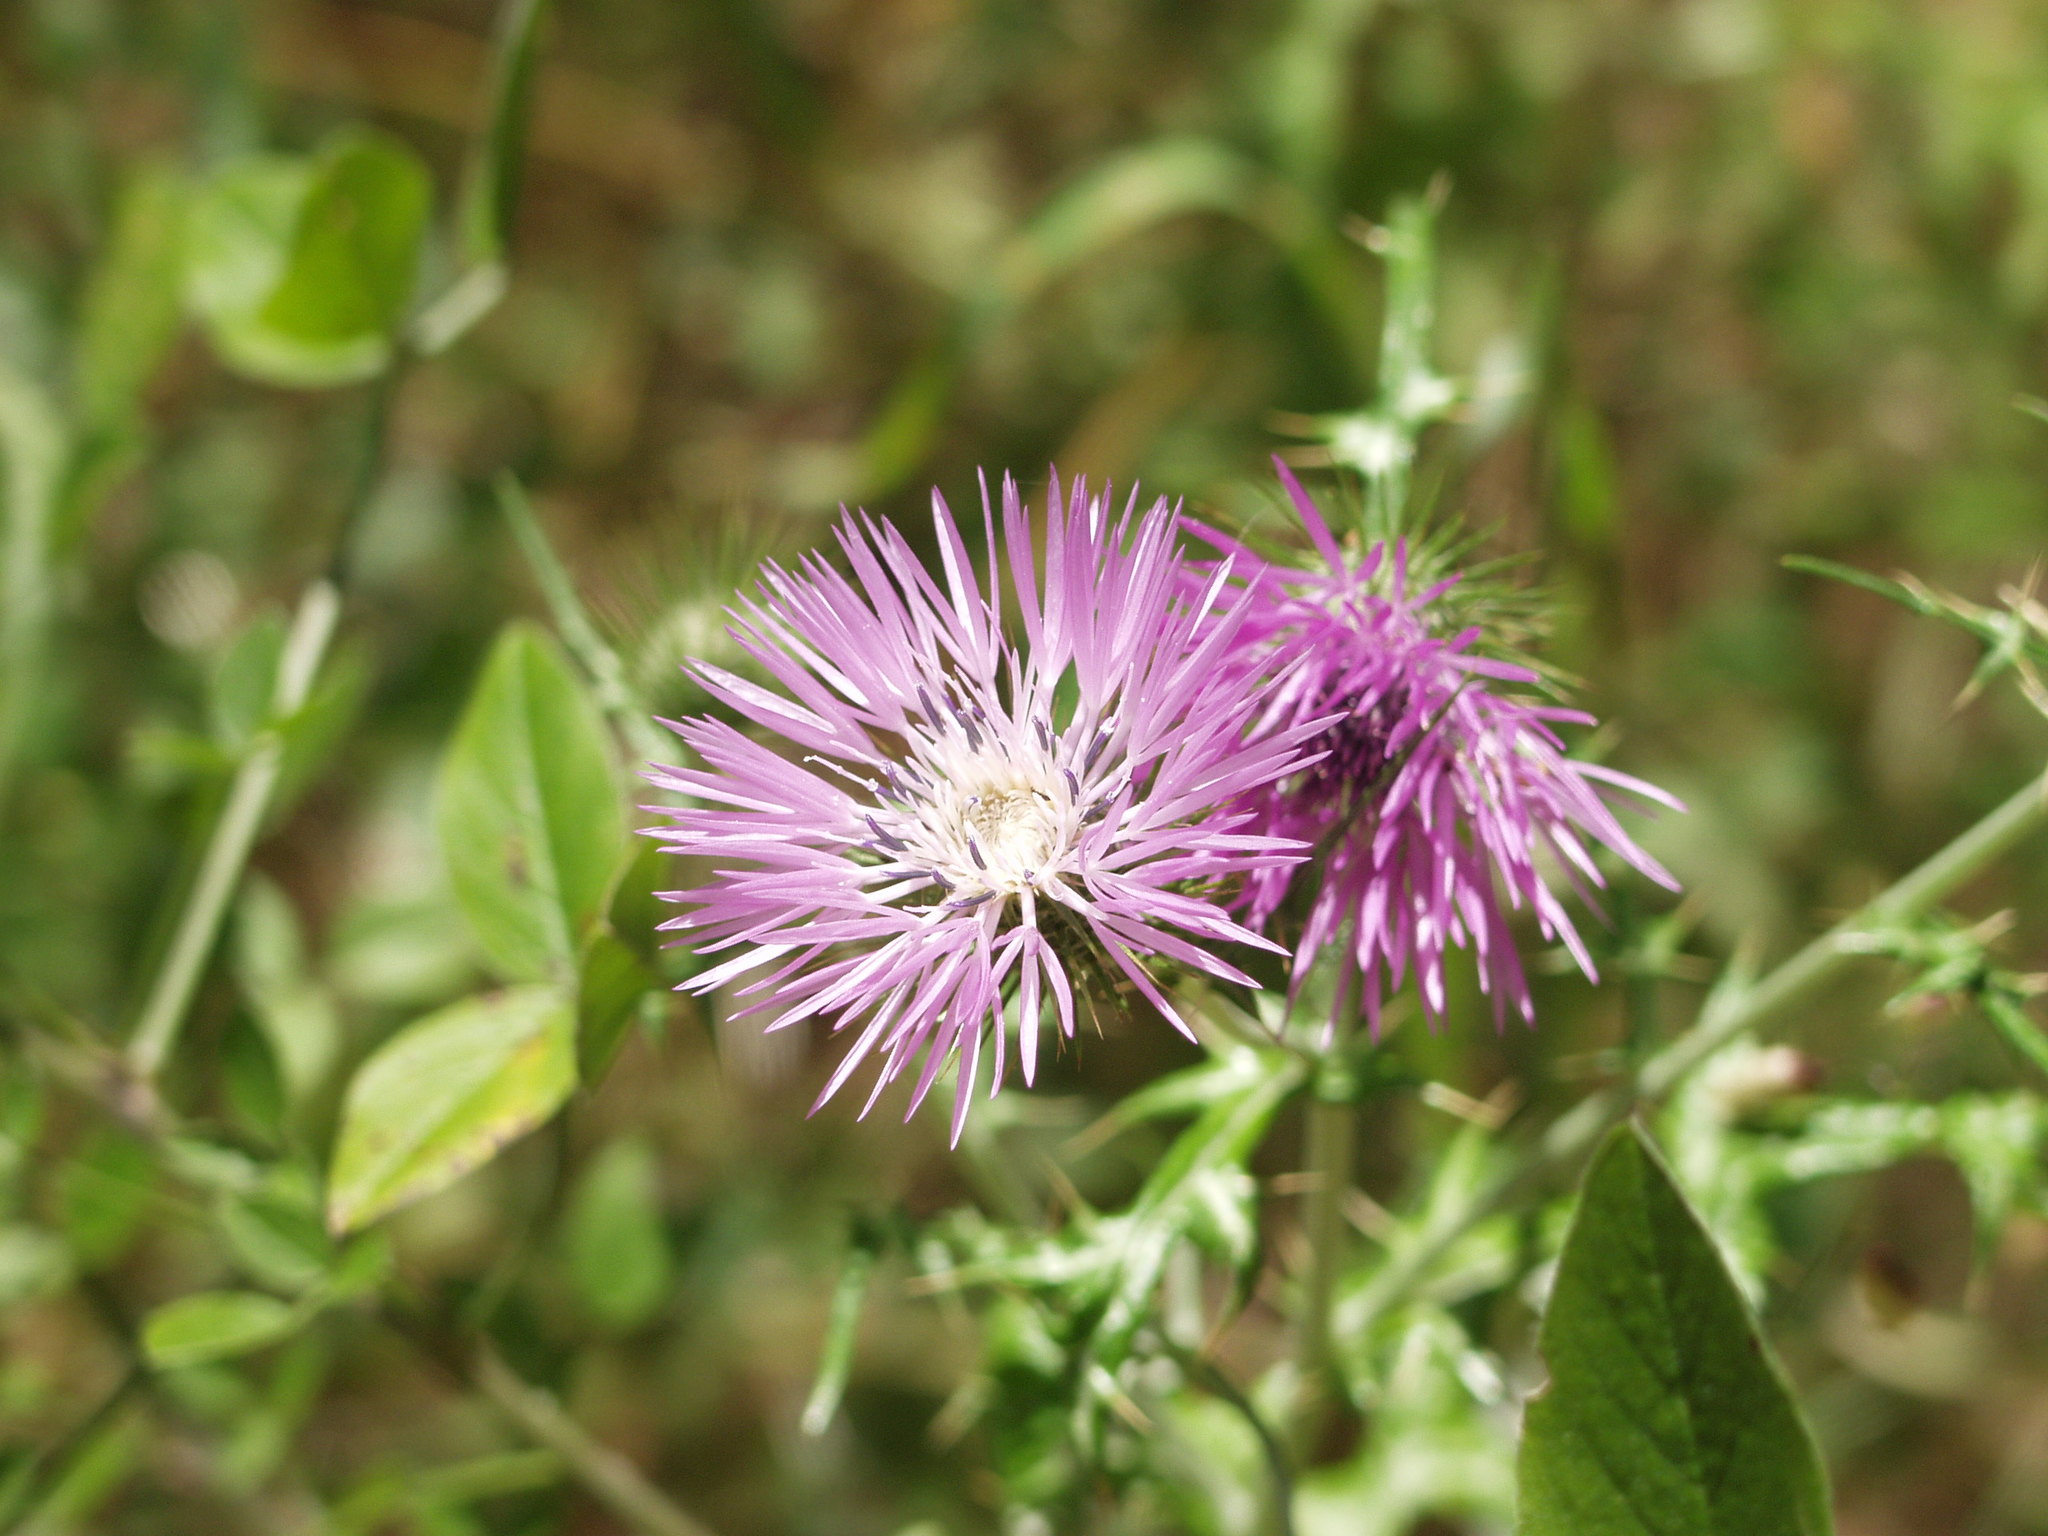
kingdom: Plantae
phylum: Tracheophyta
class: Magnoliopsida
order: Asterales
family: Asteraceae
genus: Galactites
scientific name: Galactites tomentosa
